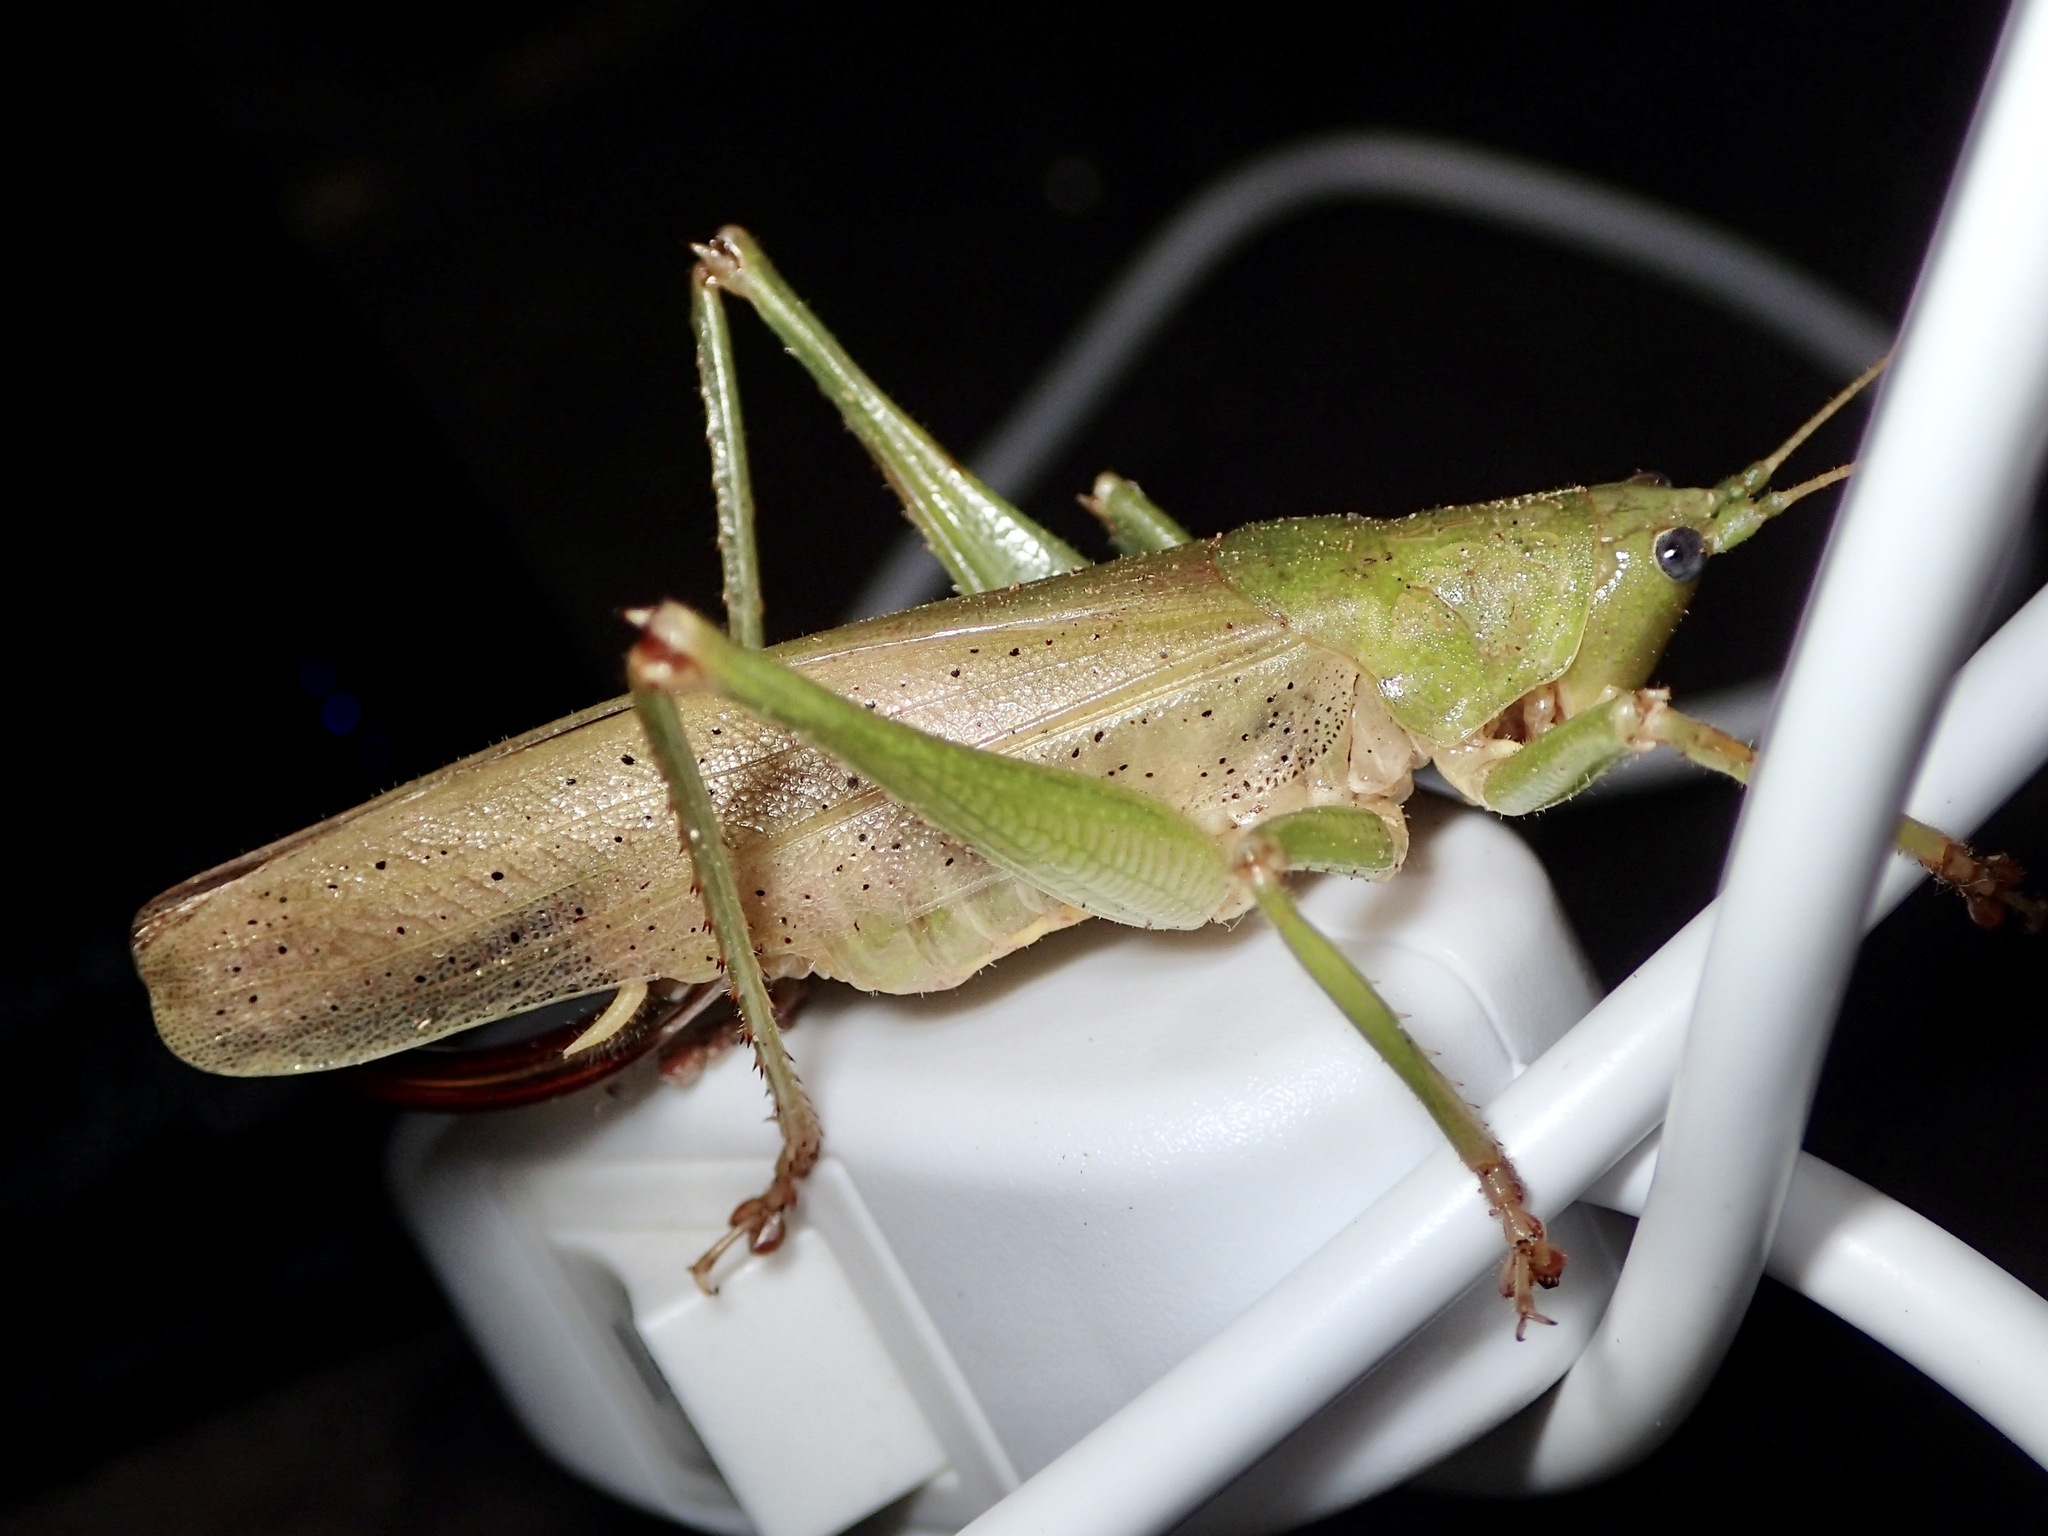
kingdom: Animalia
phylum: Arthropoda
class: Insecta
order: Orthoptera
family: Tettigoniidae
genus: Austrosalomona
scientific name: Austrosalomona destructor
